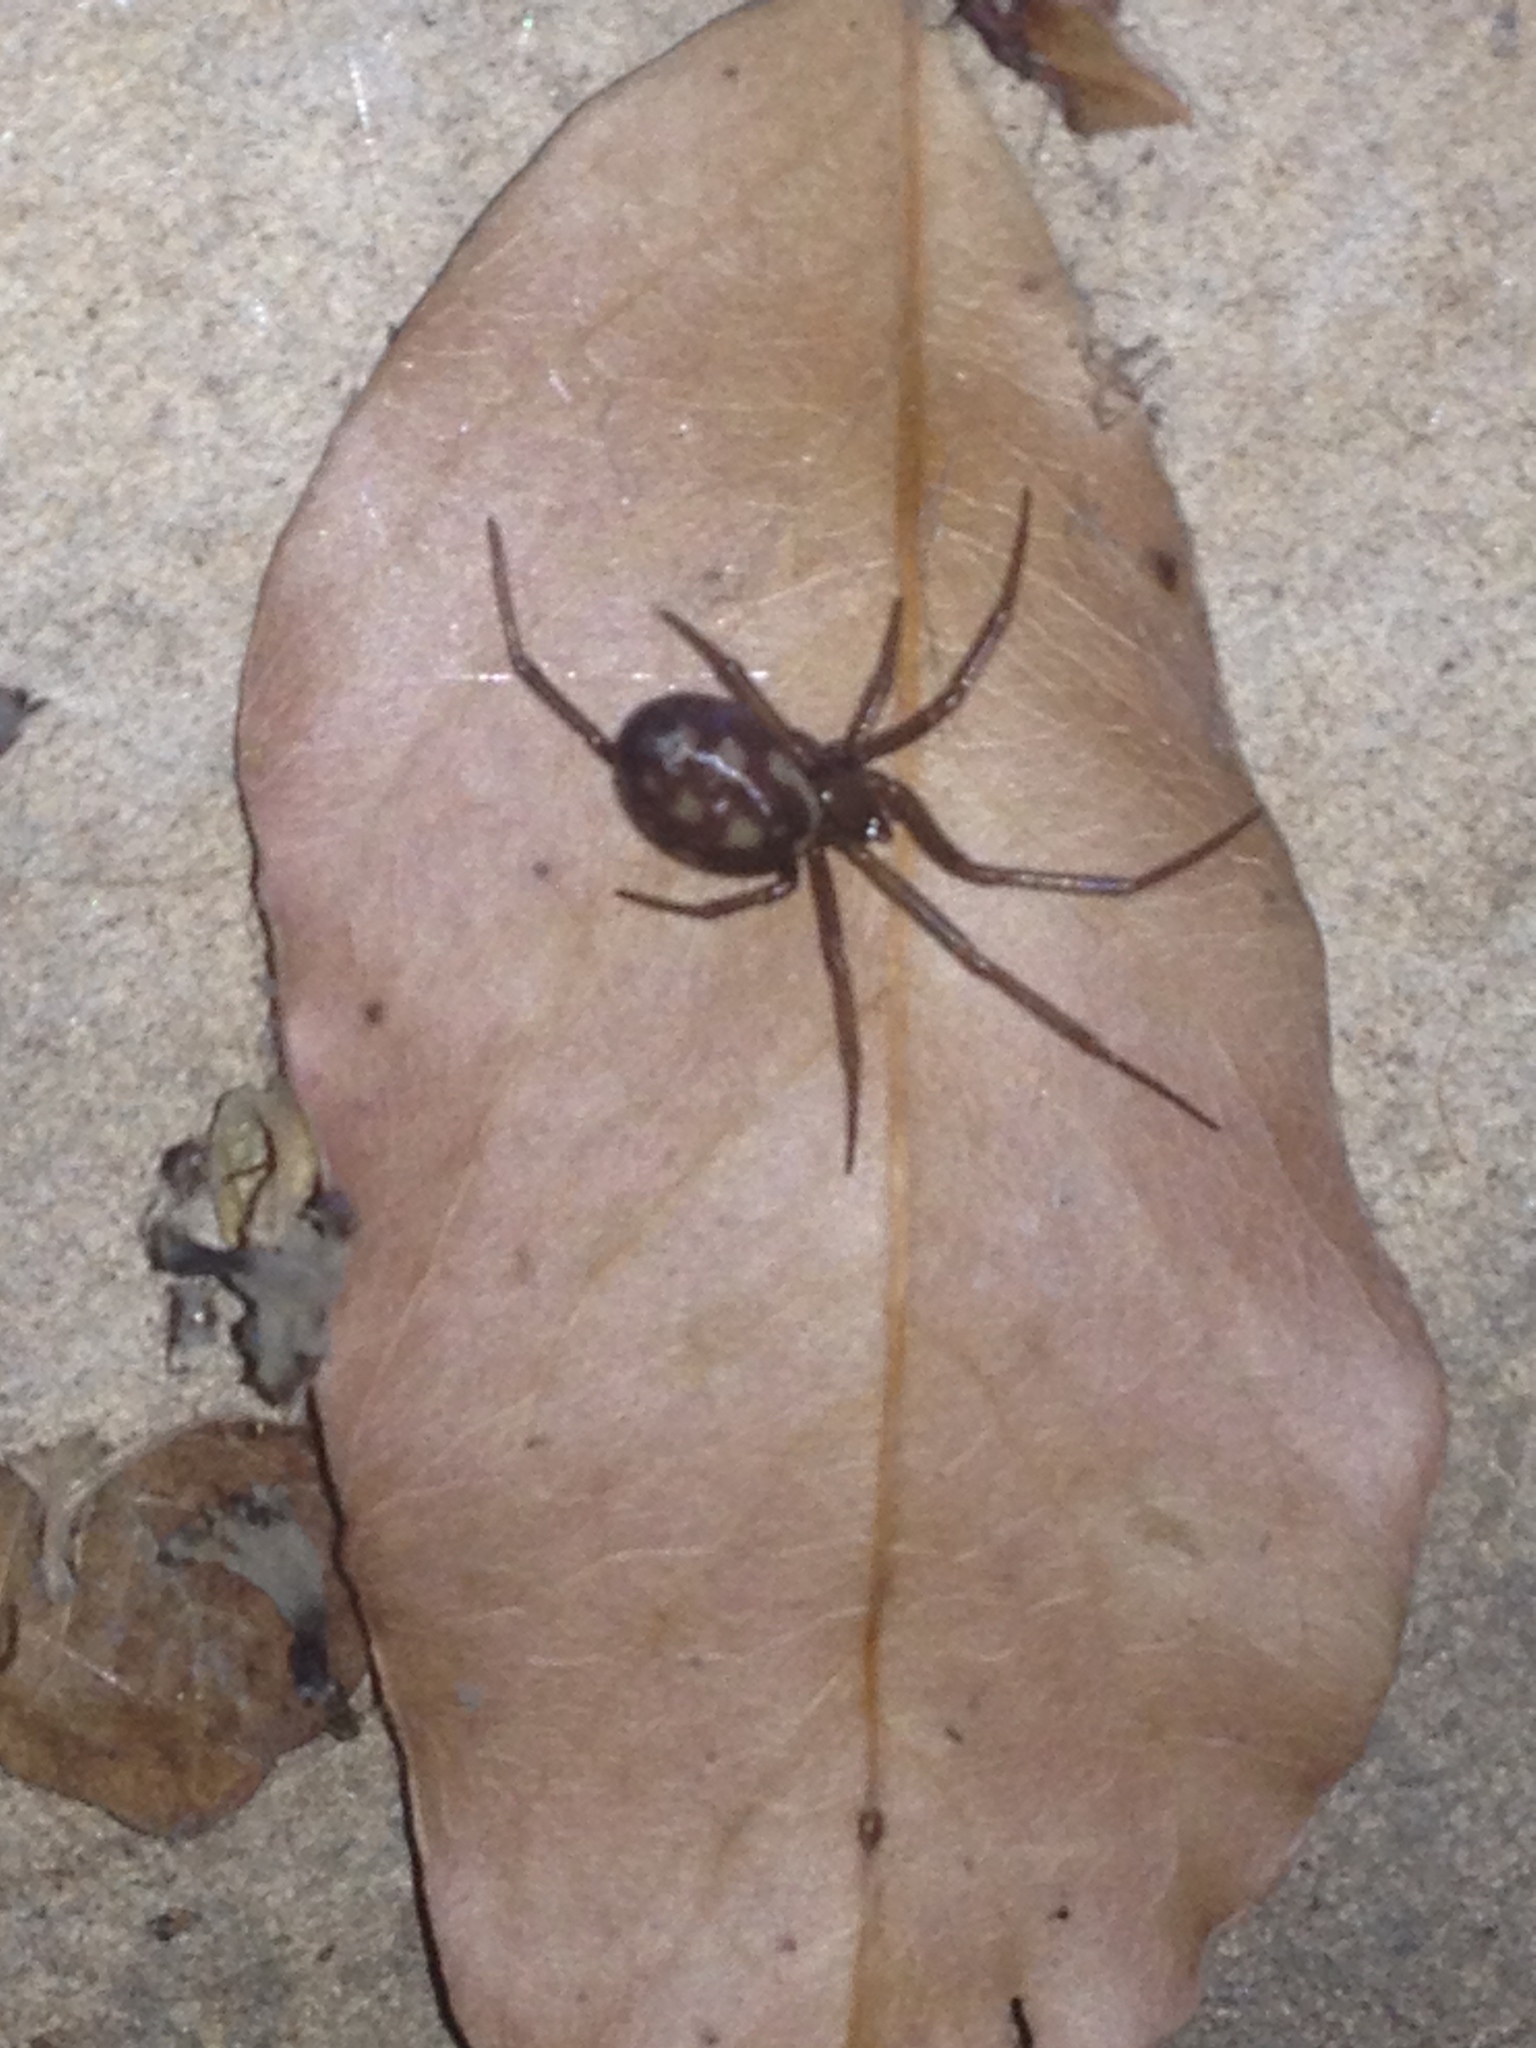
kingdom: Animalia
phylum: Arthropoda
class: Arachnida
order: Araneae
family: Theridiidae
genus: Steatoda
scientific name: Steatoda grossa
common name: False black widow
